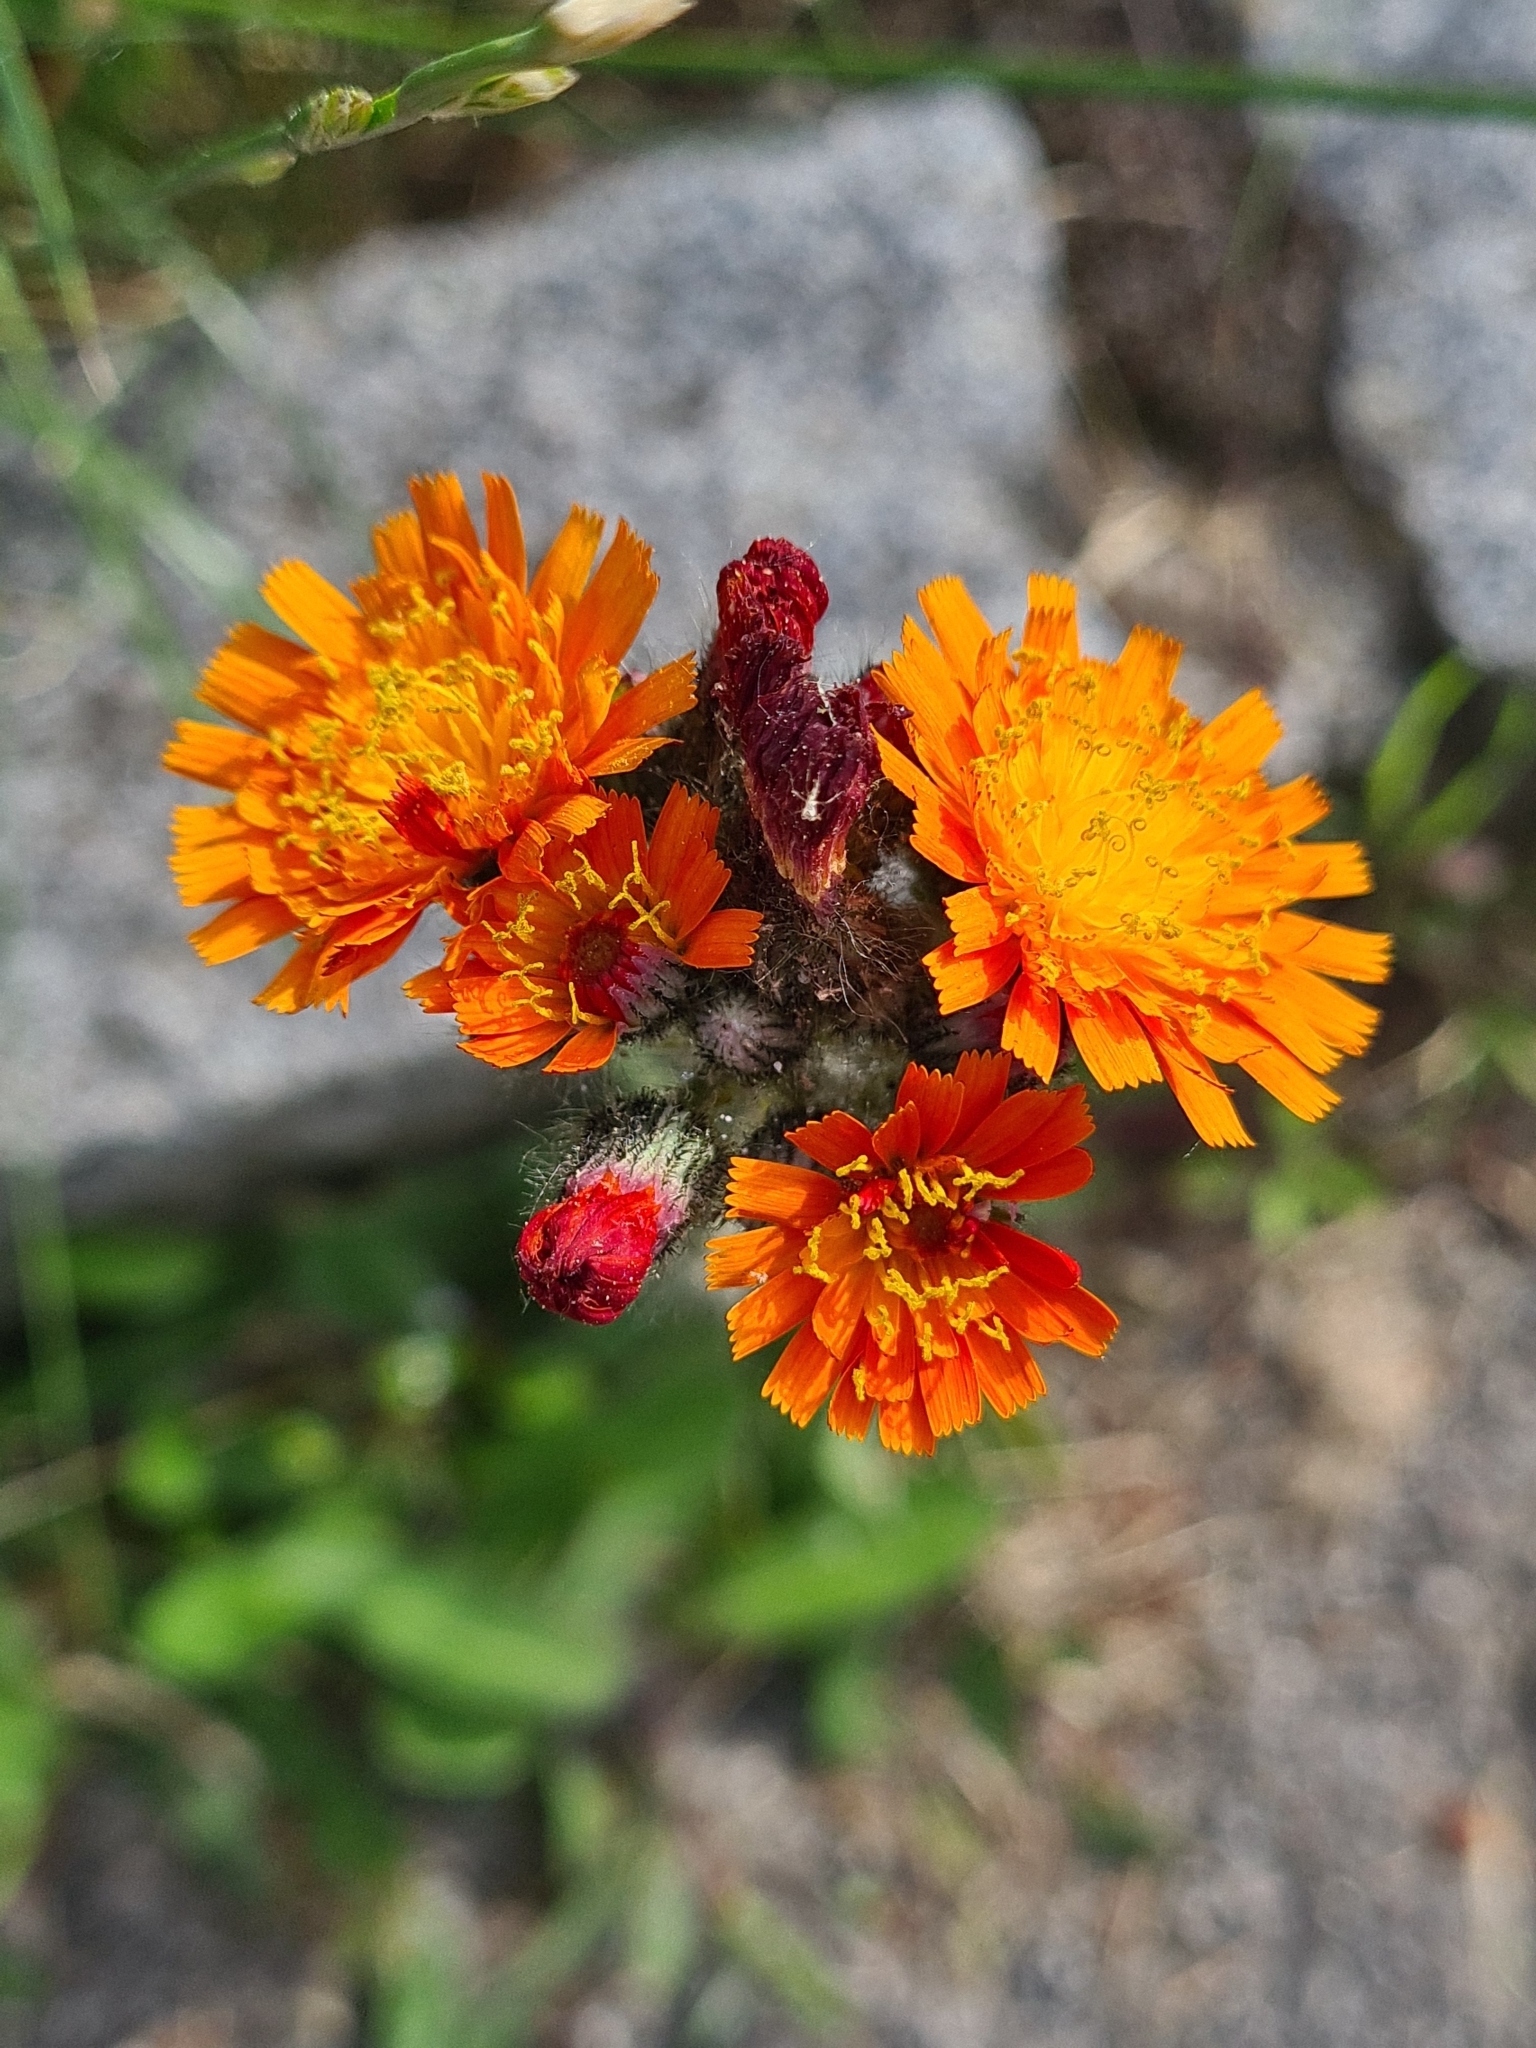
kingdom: Plantae
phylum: Tracheophyta
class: Magnoliopsida
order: Asterales
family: Asteraceae
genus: Pilosella
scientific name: Pilosella aurantiaca
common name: Fox-and-cubs
